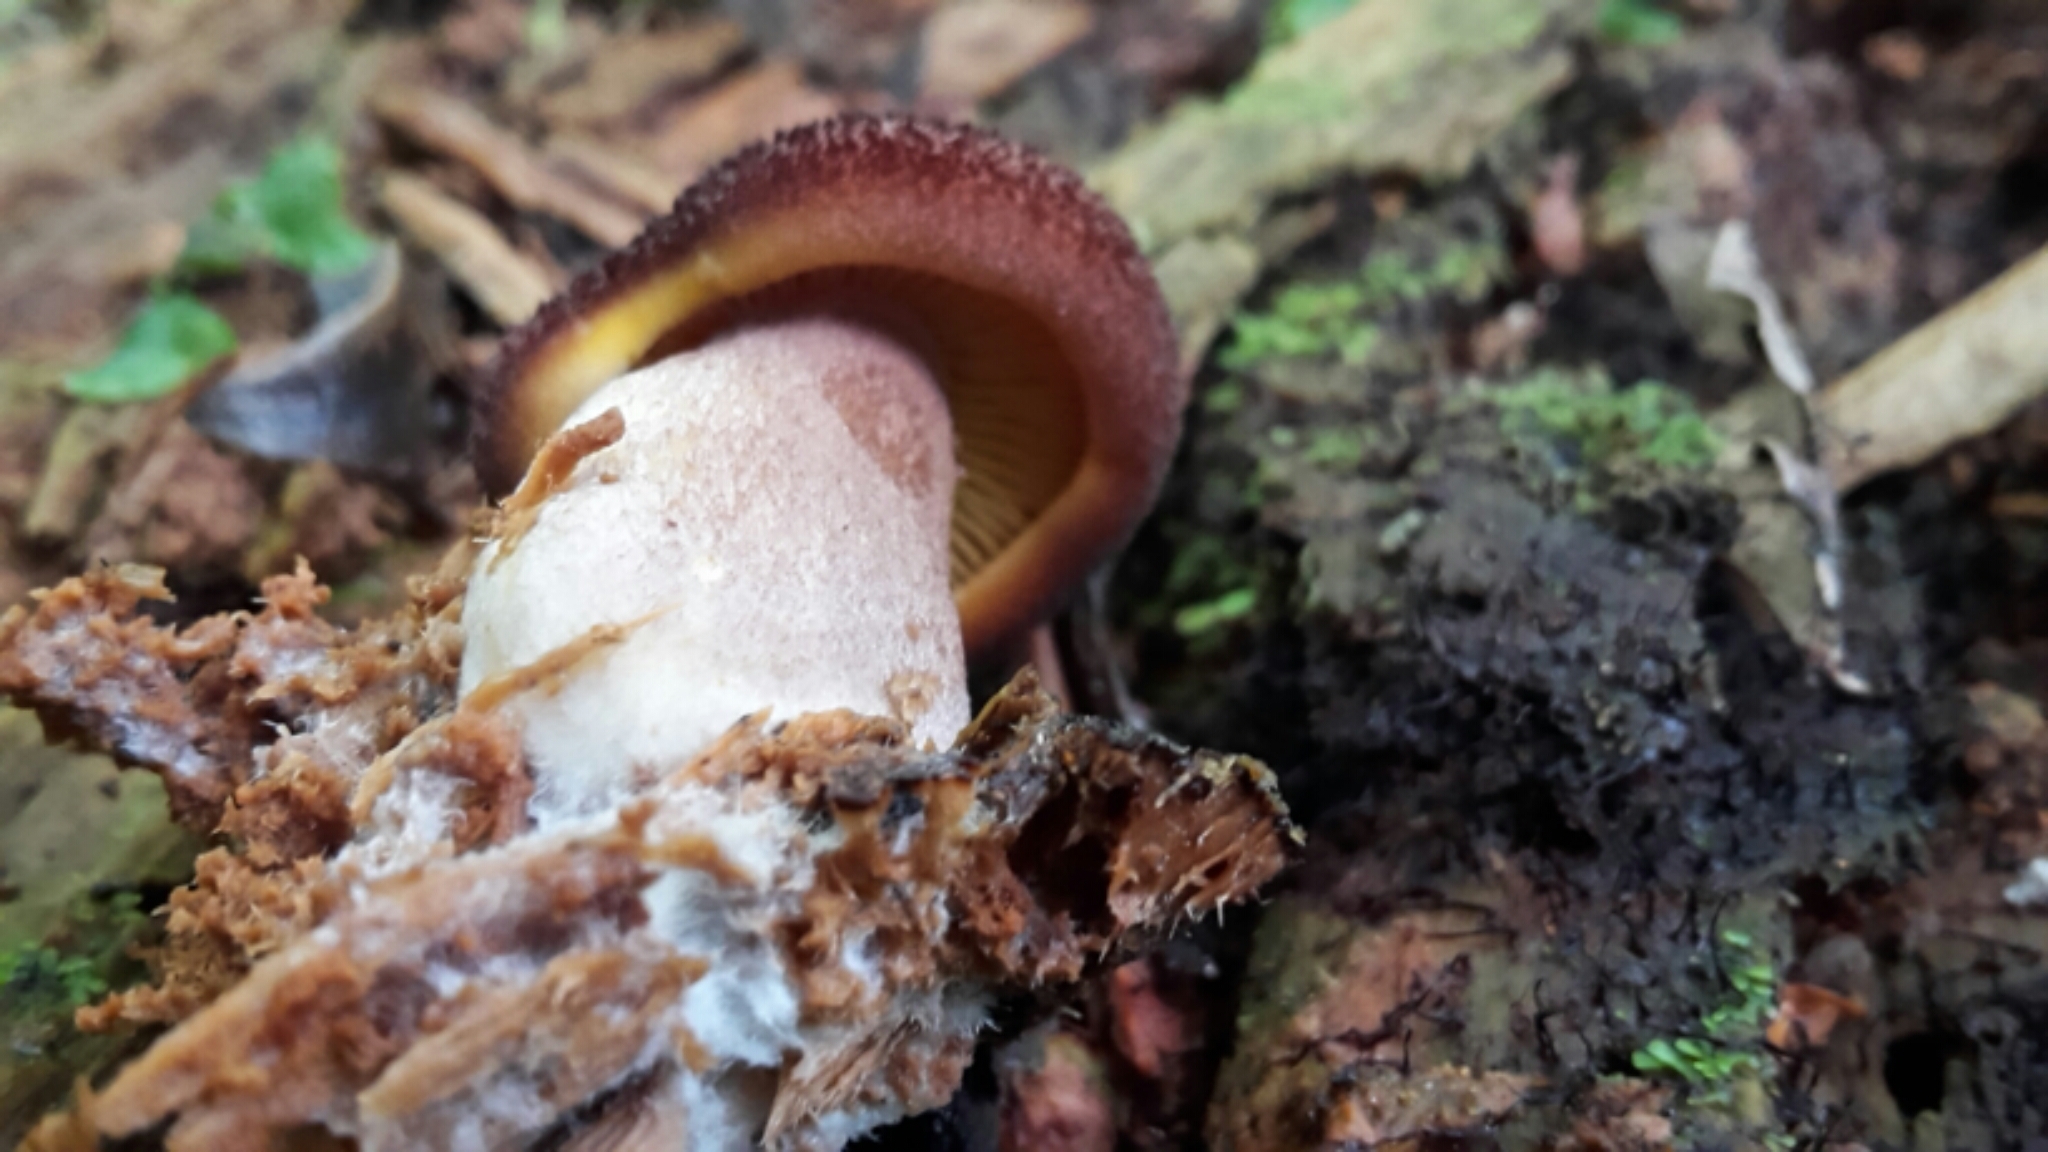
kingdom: Fungi
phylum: Basidiomycota
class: Agaricomycetes
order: Agaricales
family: Tricholomataceae
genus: Tricholomopsis
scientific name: Tricholomopsis scabra
